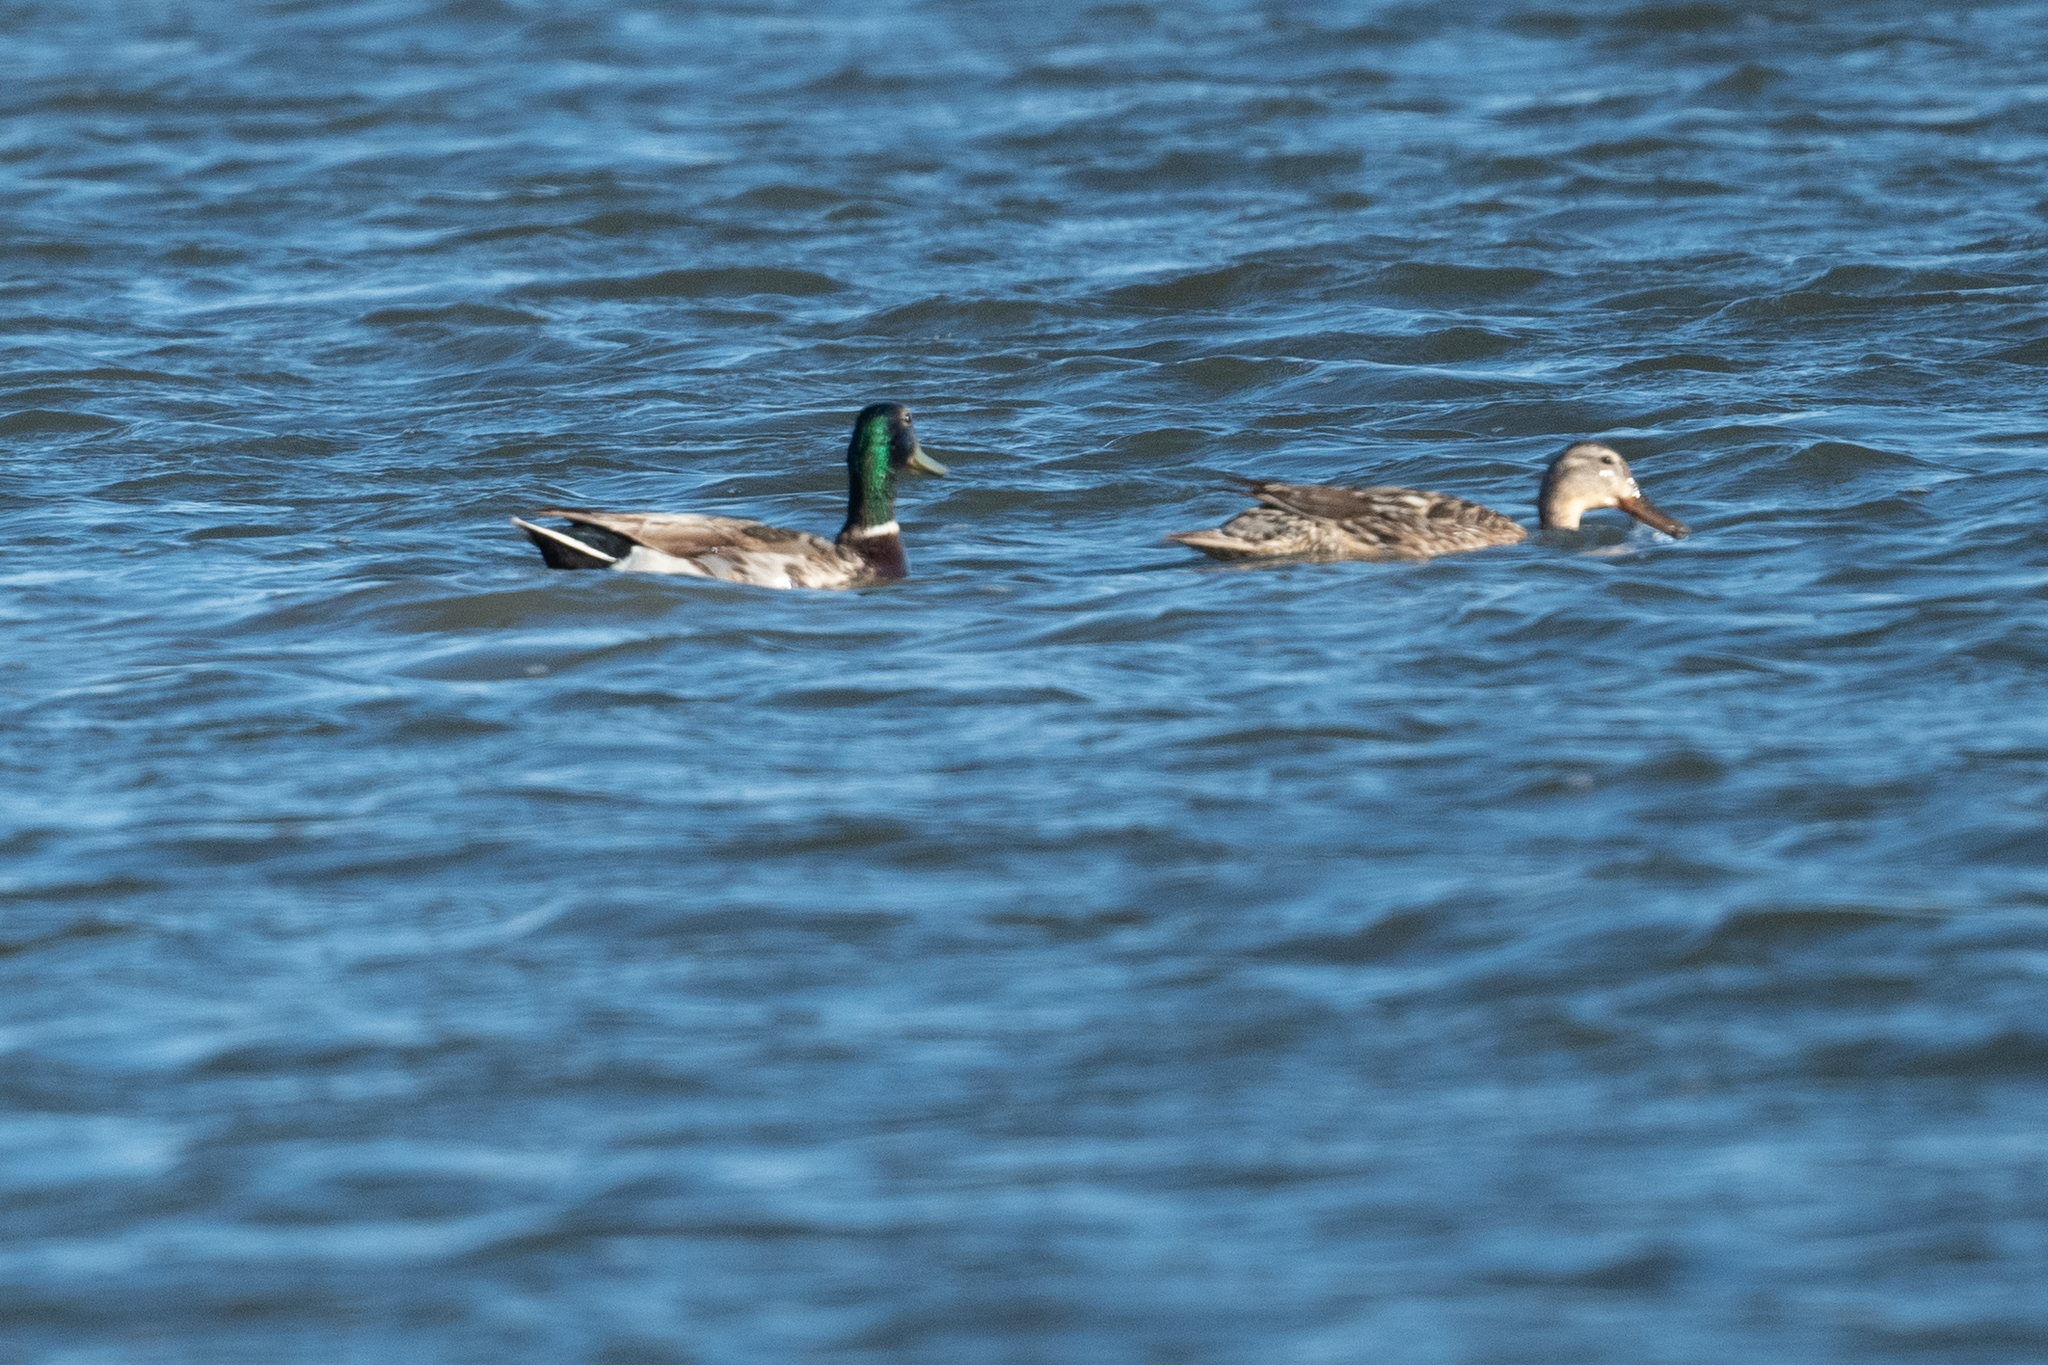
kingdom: Animalia
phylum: Chordata
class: Aves
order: Anseriformes
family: Anatidae
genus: Anas
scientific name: Anas platyrhynchos
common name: Mallard
